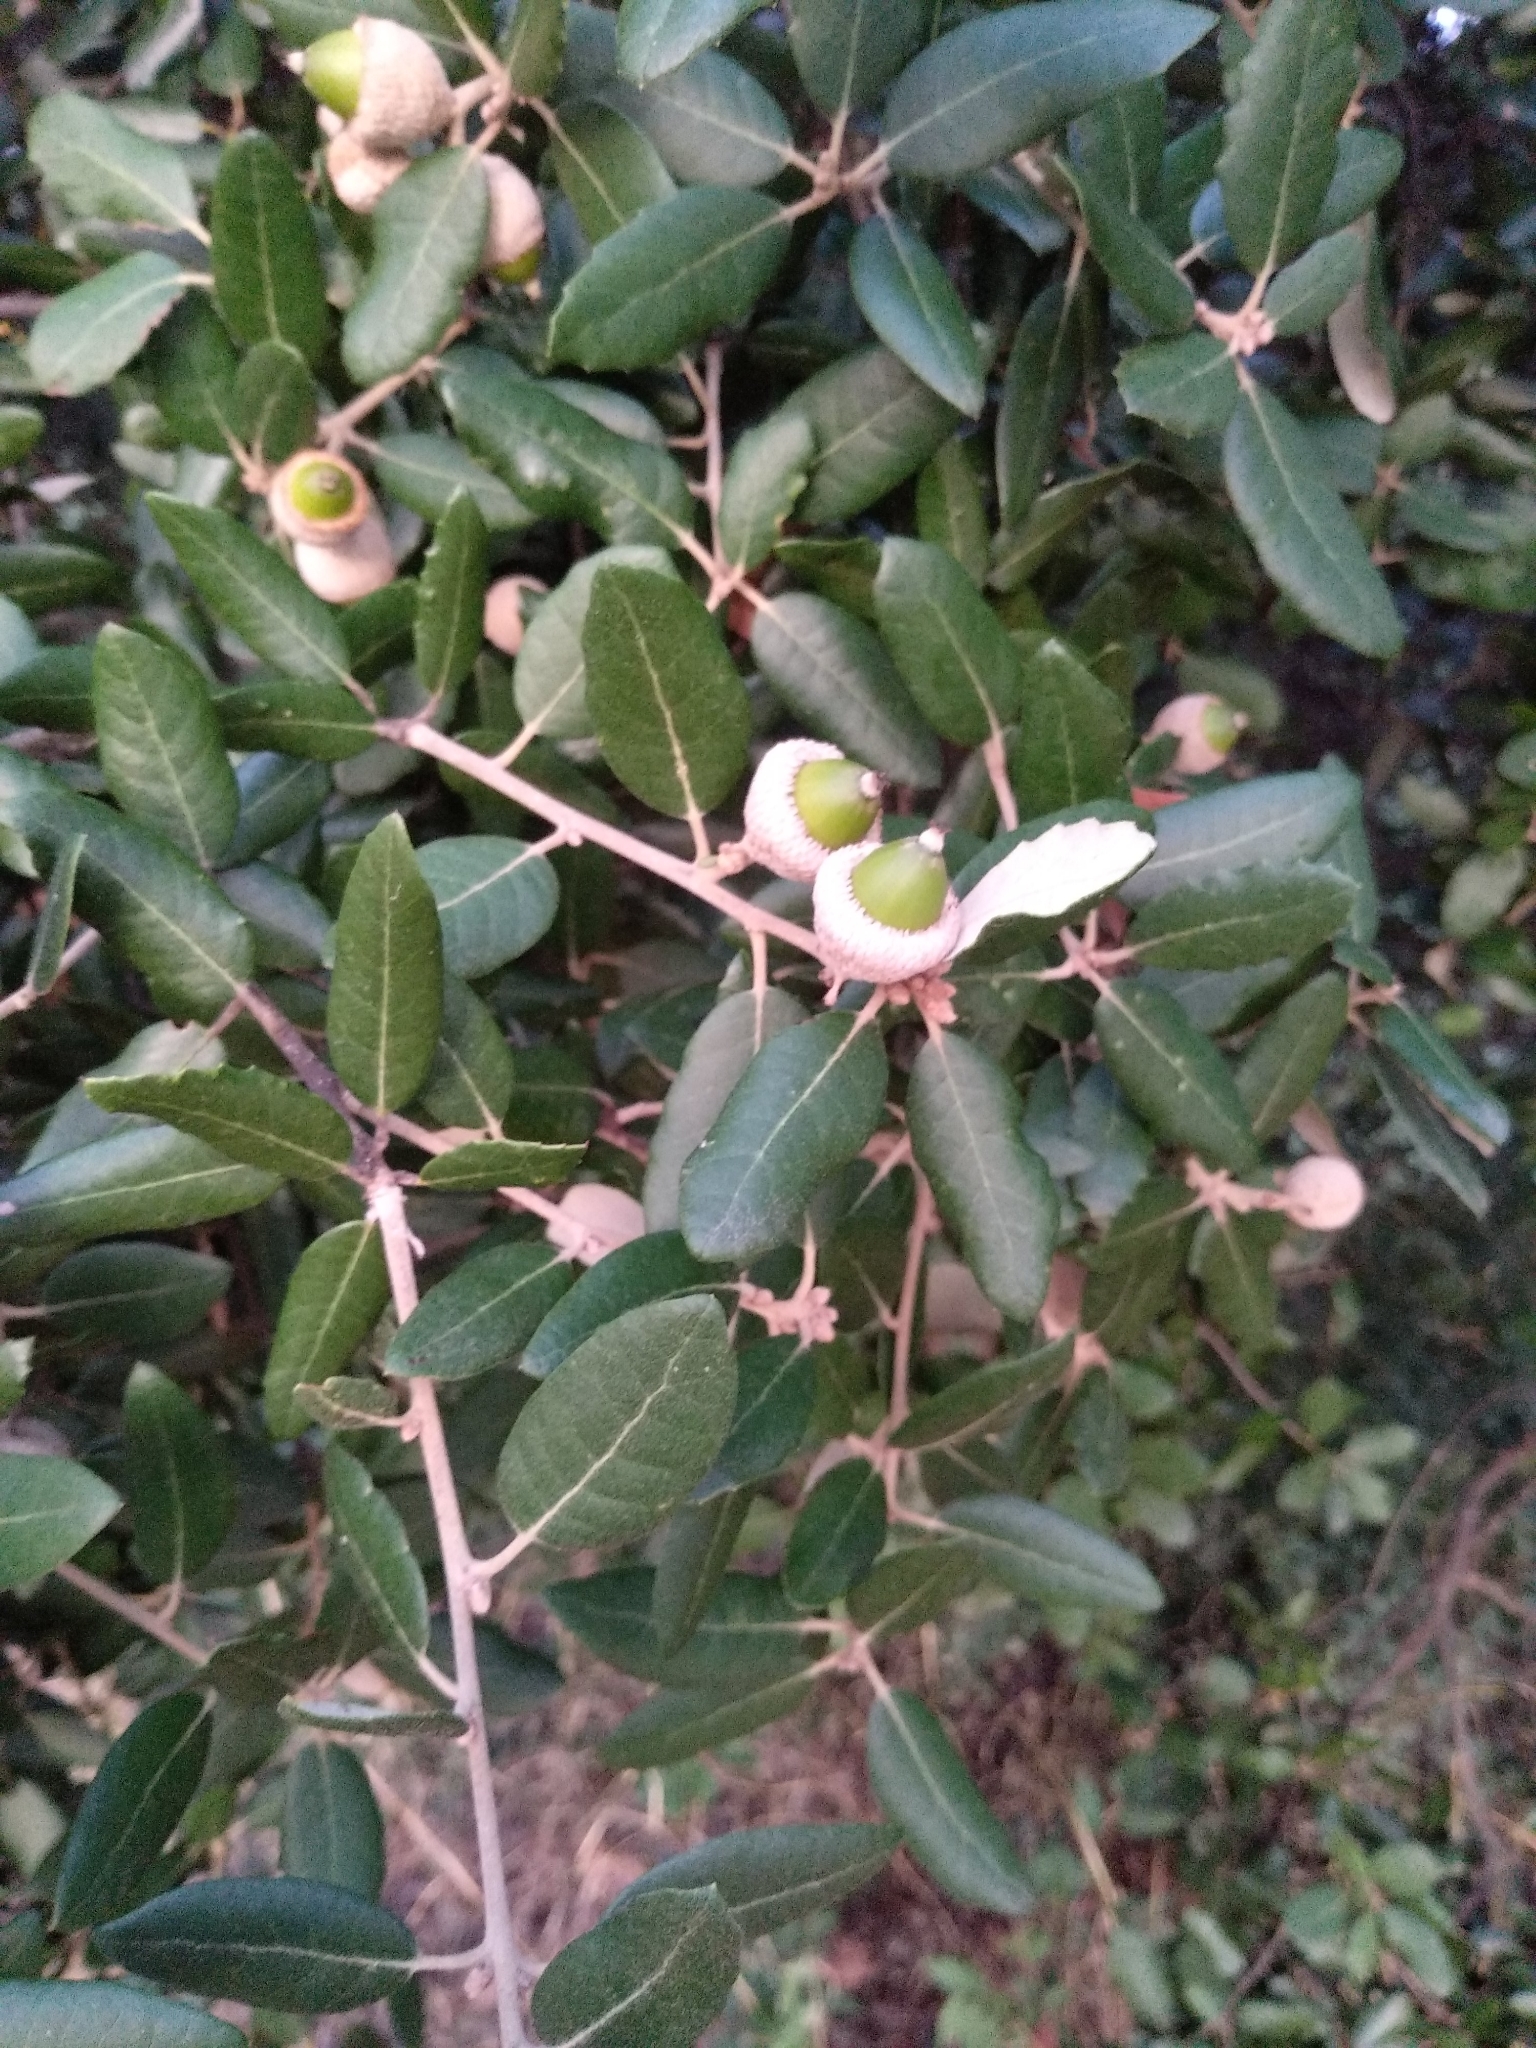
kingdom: Plantae
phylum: Tracheophyta
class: Magnoliopsida
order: Fagales
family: Fagaceae
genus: Quercus
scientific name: Quercus ilex
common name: Evergreen oak
